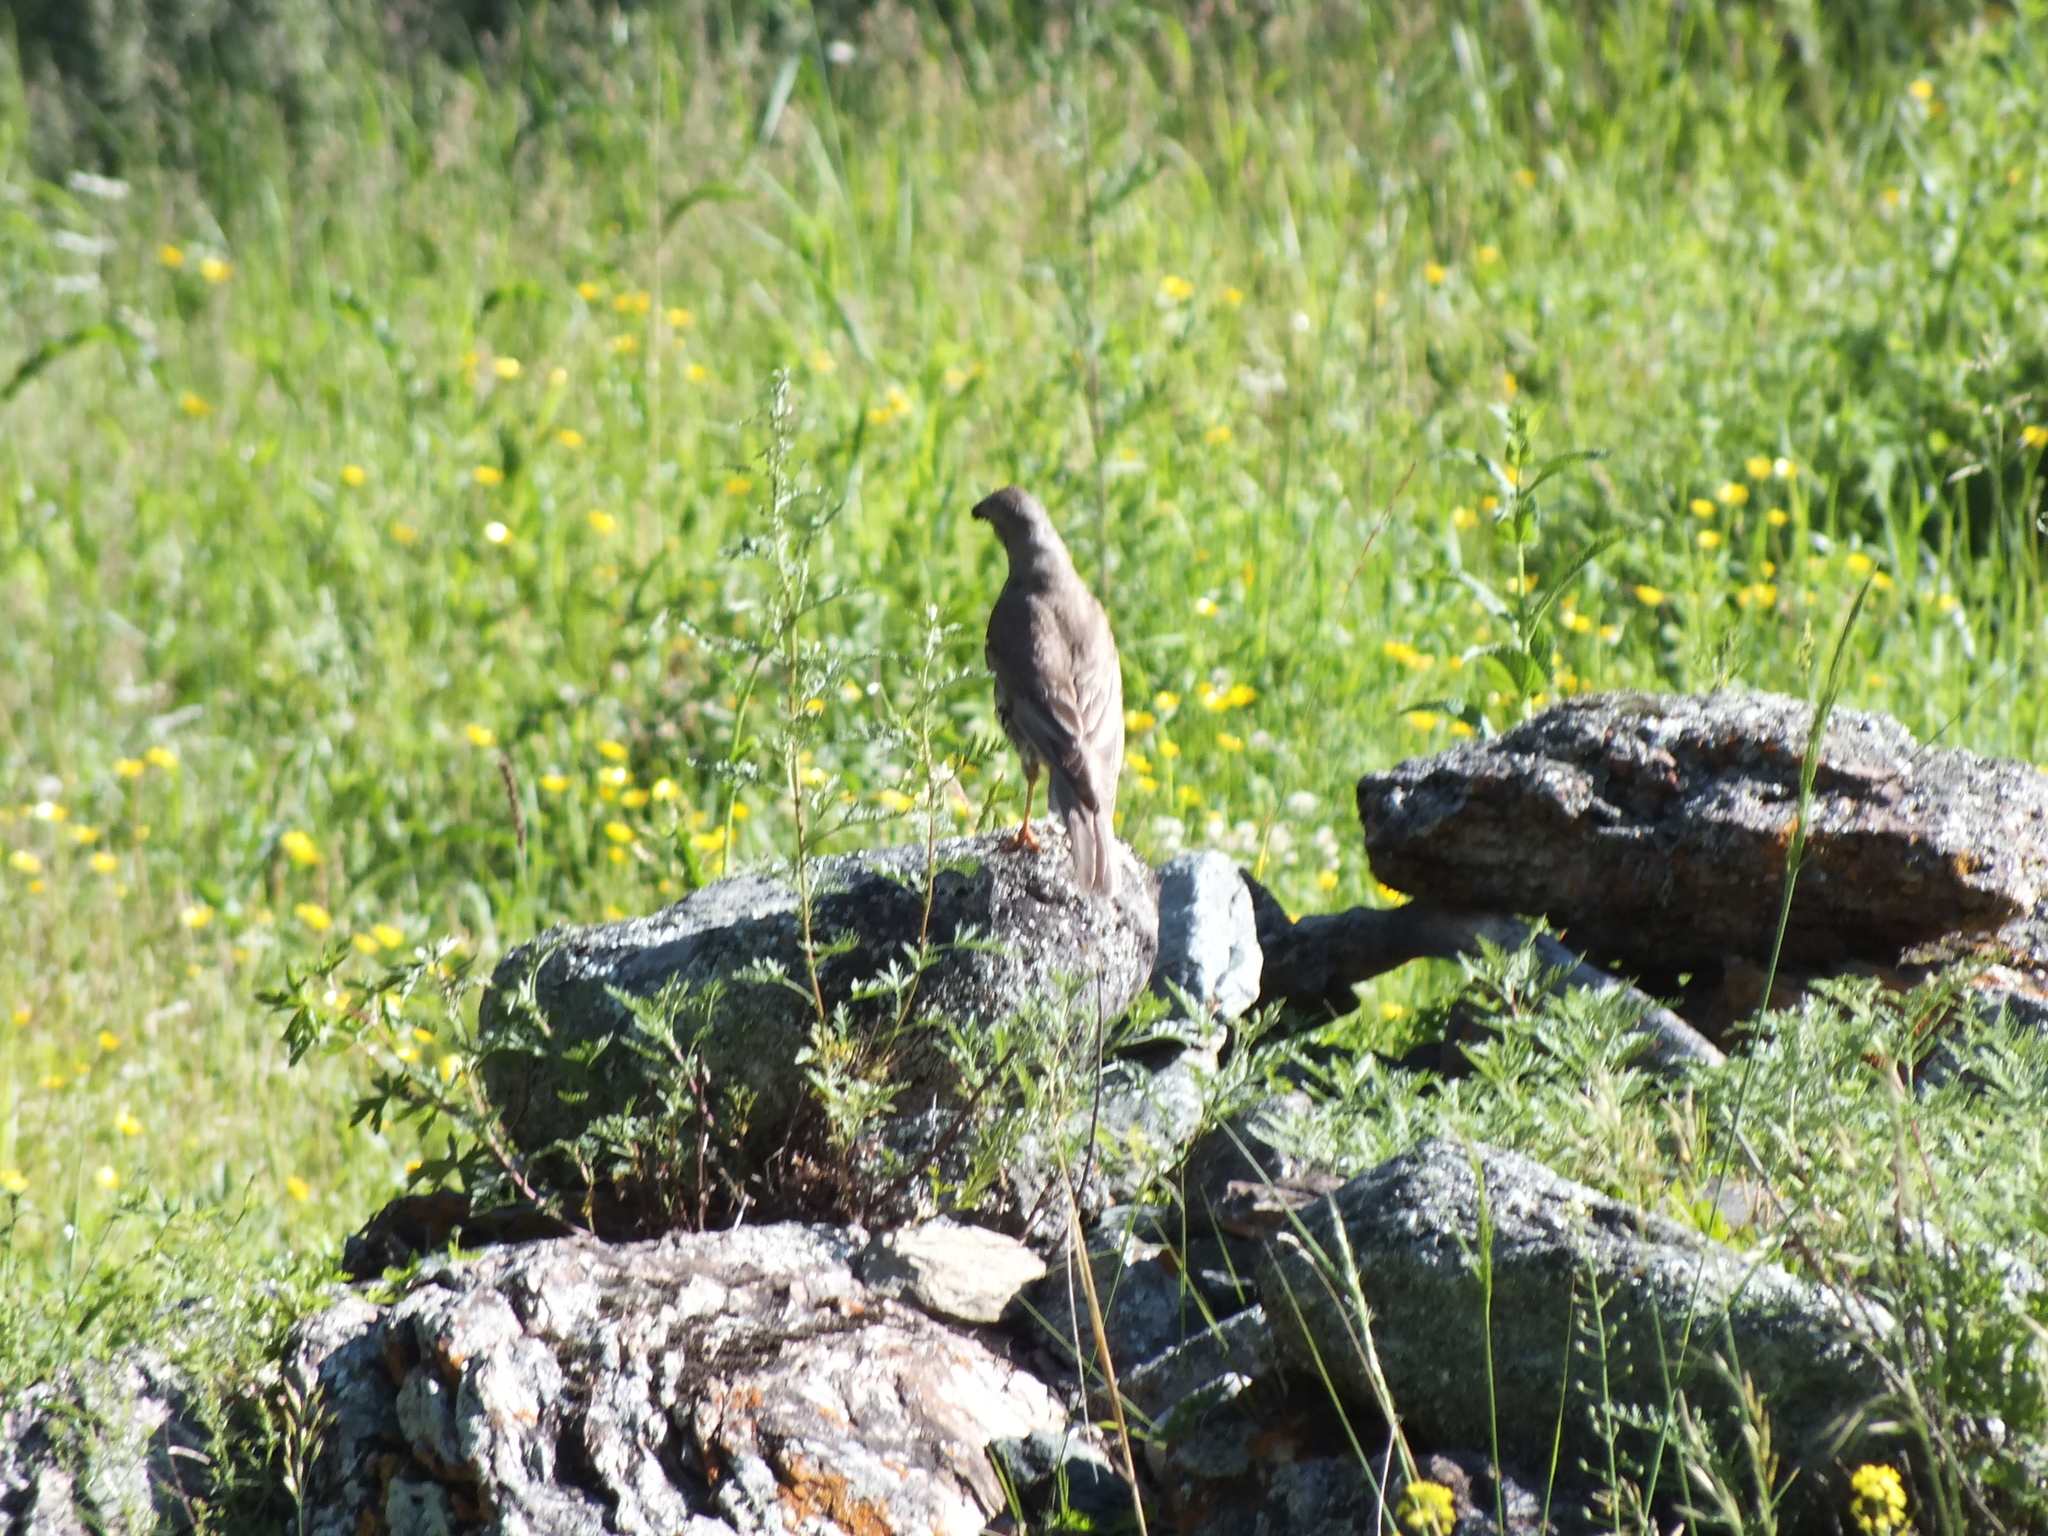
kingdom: Animalia
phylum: Chordata
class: Aves
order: Passeriformes
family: Turdidae
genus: Turdus
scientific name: Turdus viscivorus
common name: Mistle thrush
